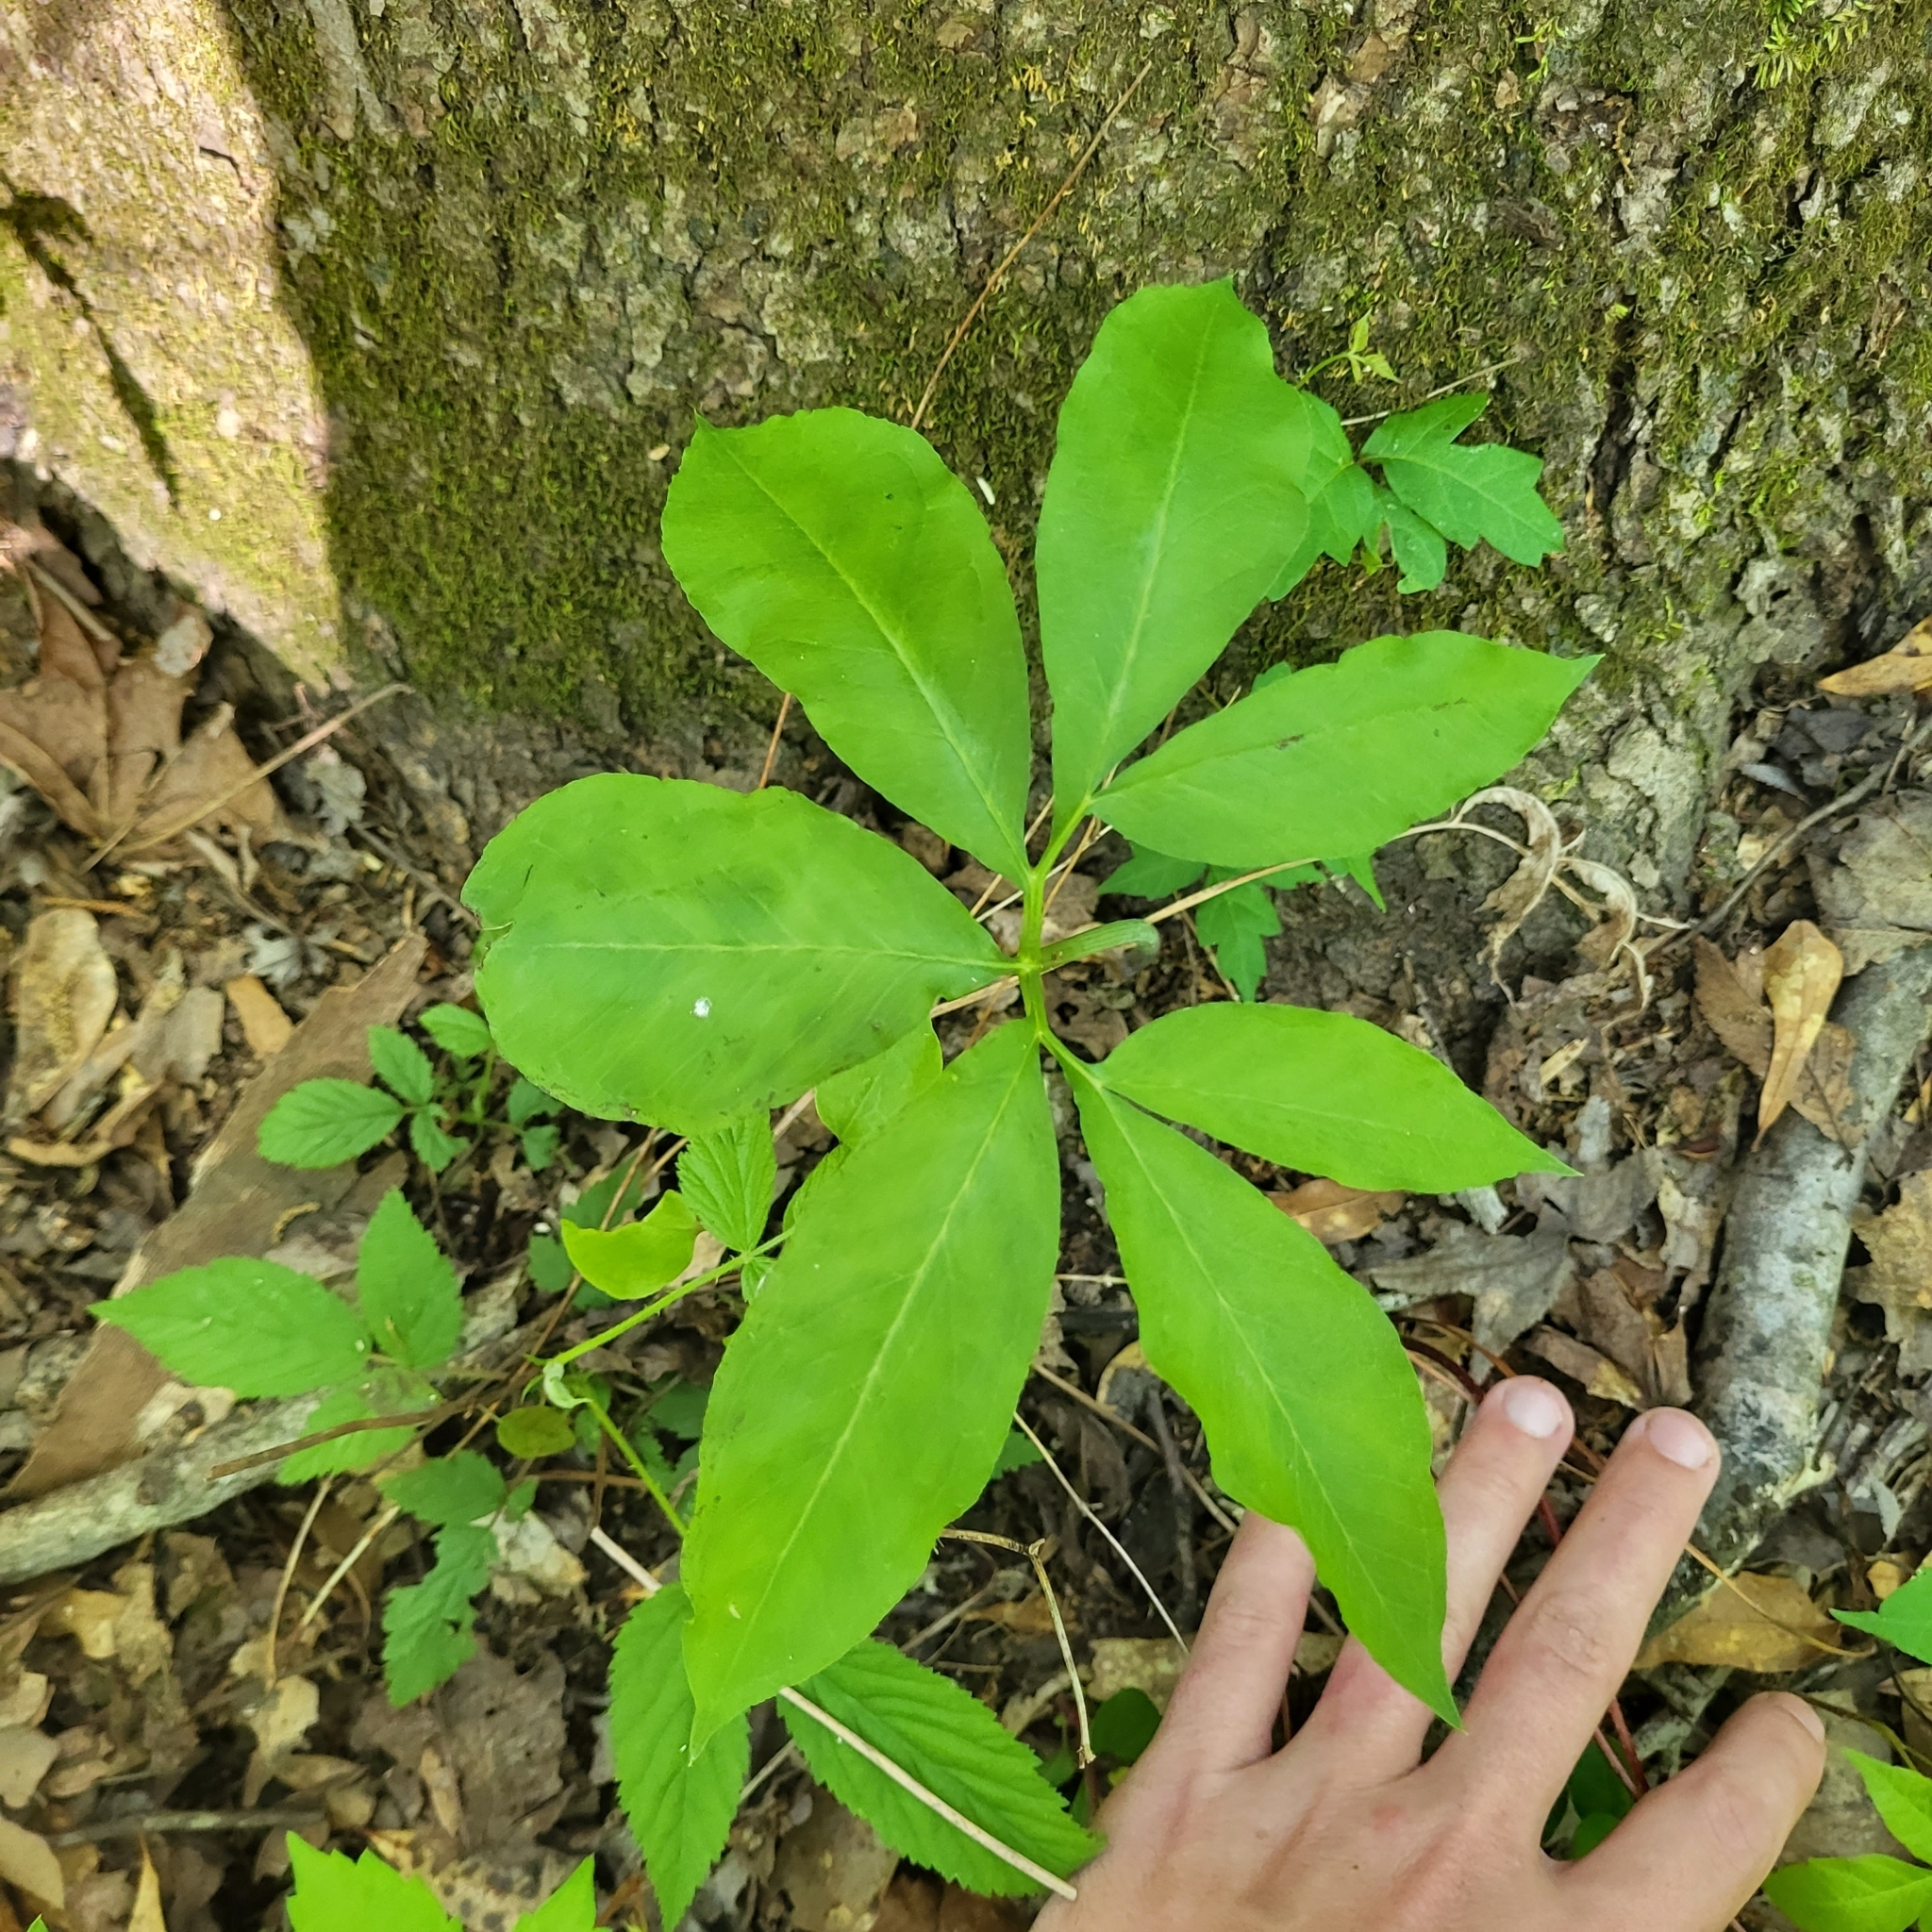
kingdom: Plantae
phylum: Tracheophyta
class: Liliopsida
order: Alismatales
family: Araceae
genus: Arisaema
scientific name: Arisaema dracontium
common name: Dragon-arum
